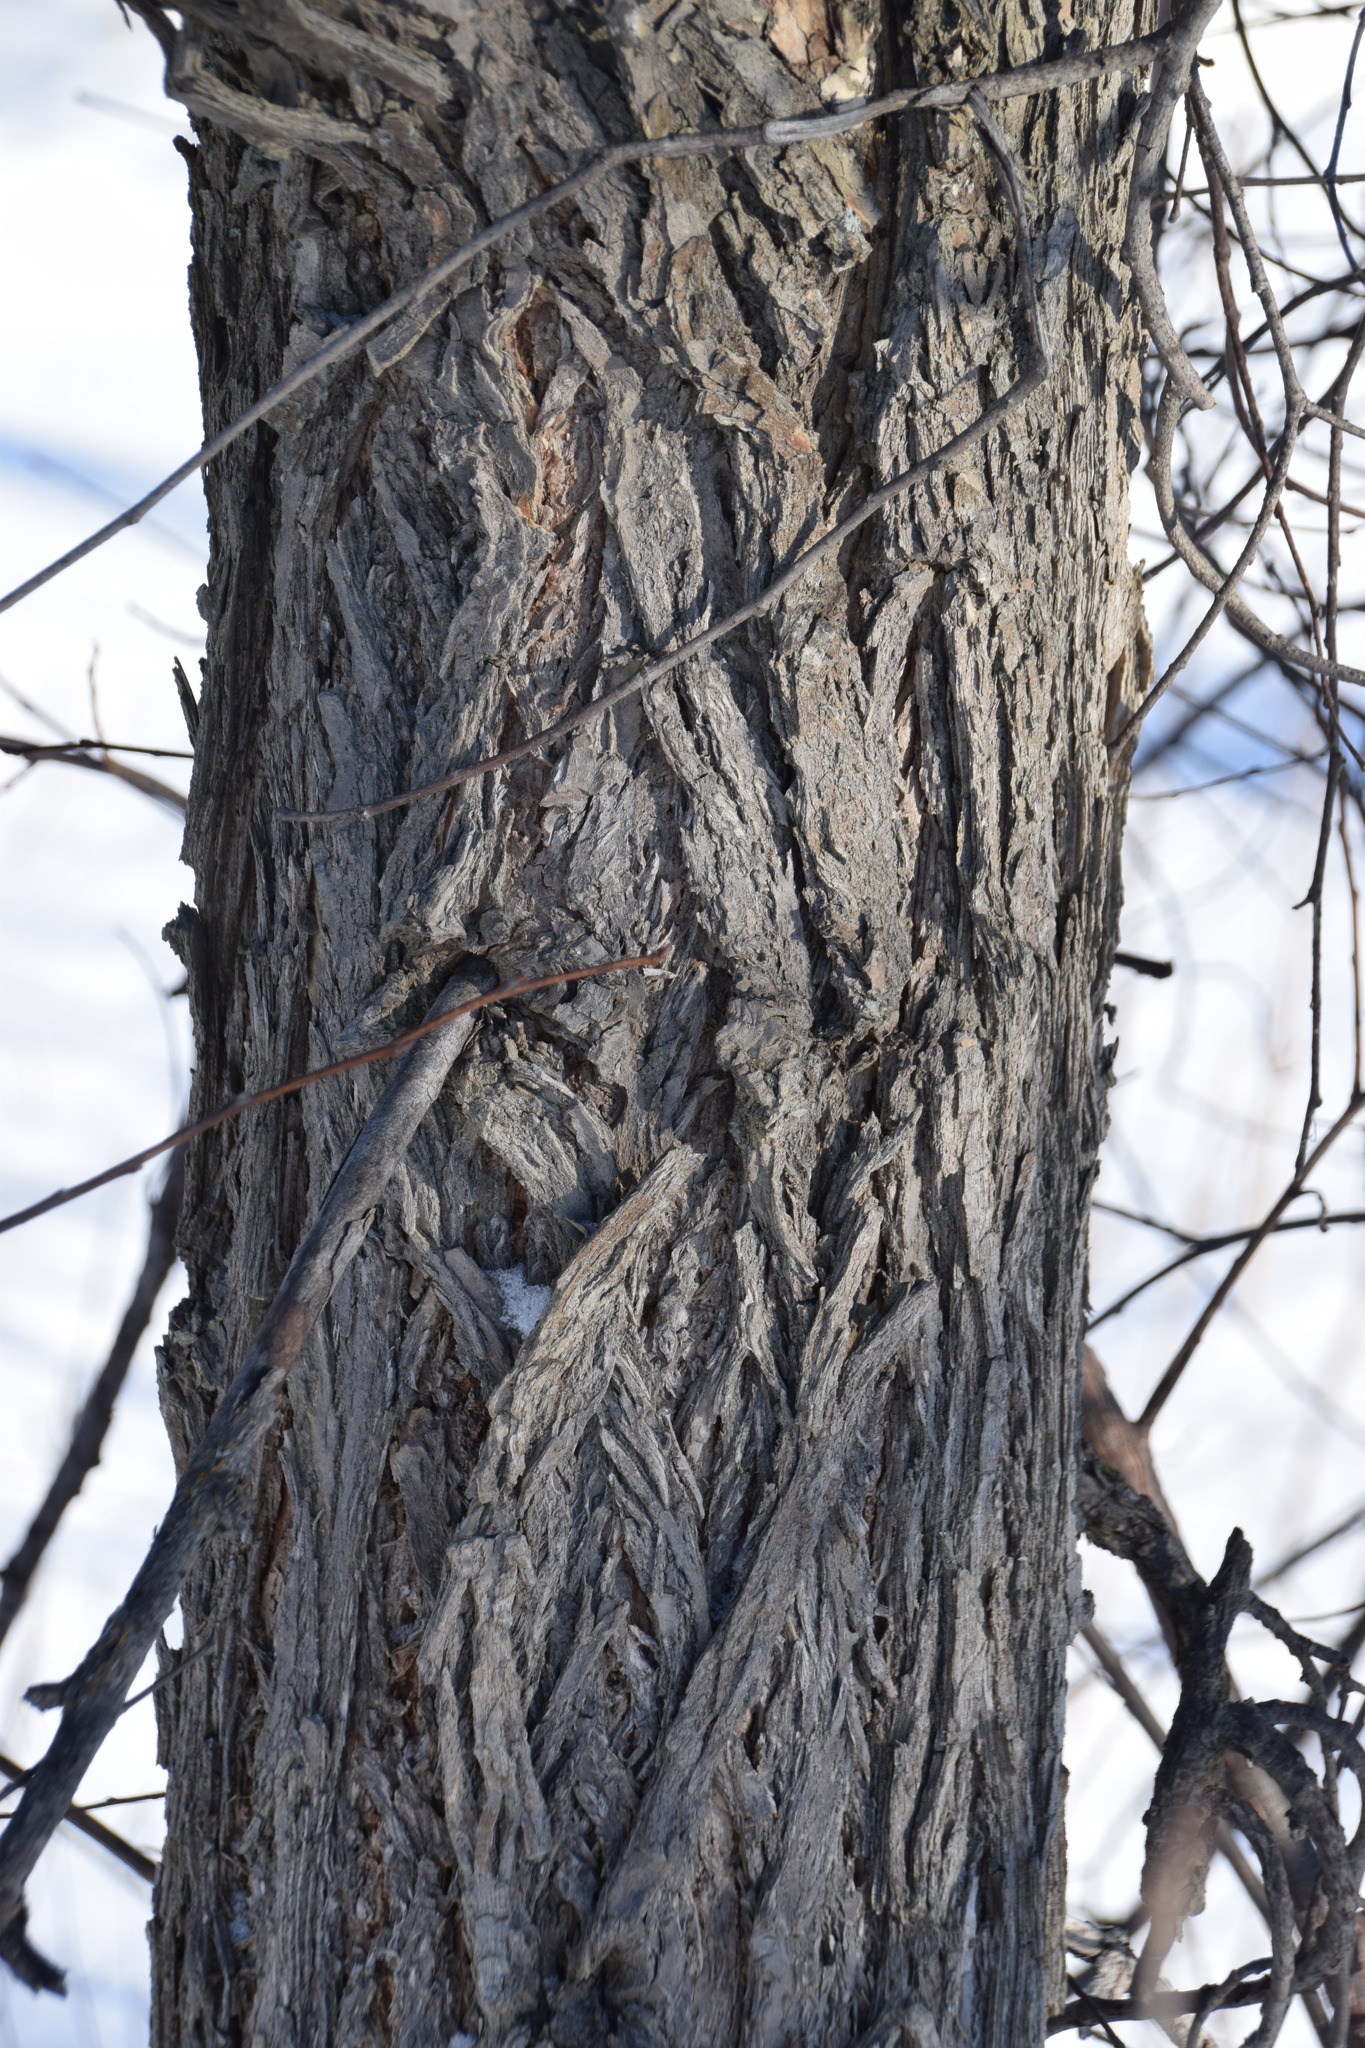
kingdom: Plantae
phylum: Tracheophyta
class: Magnoliopsida
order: Rosales
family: Ulmaceae
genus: Ulmus
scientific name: Ulmus americana
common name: American elm
